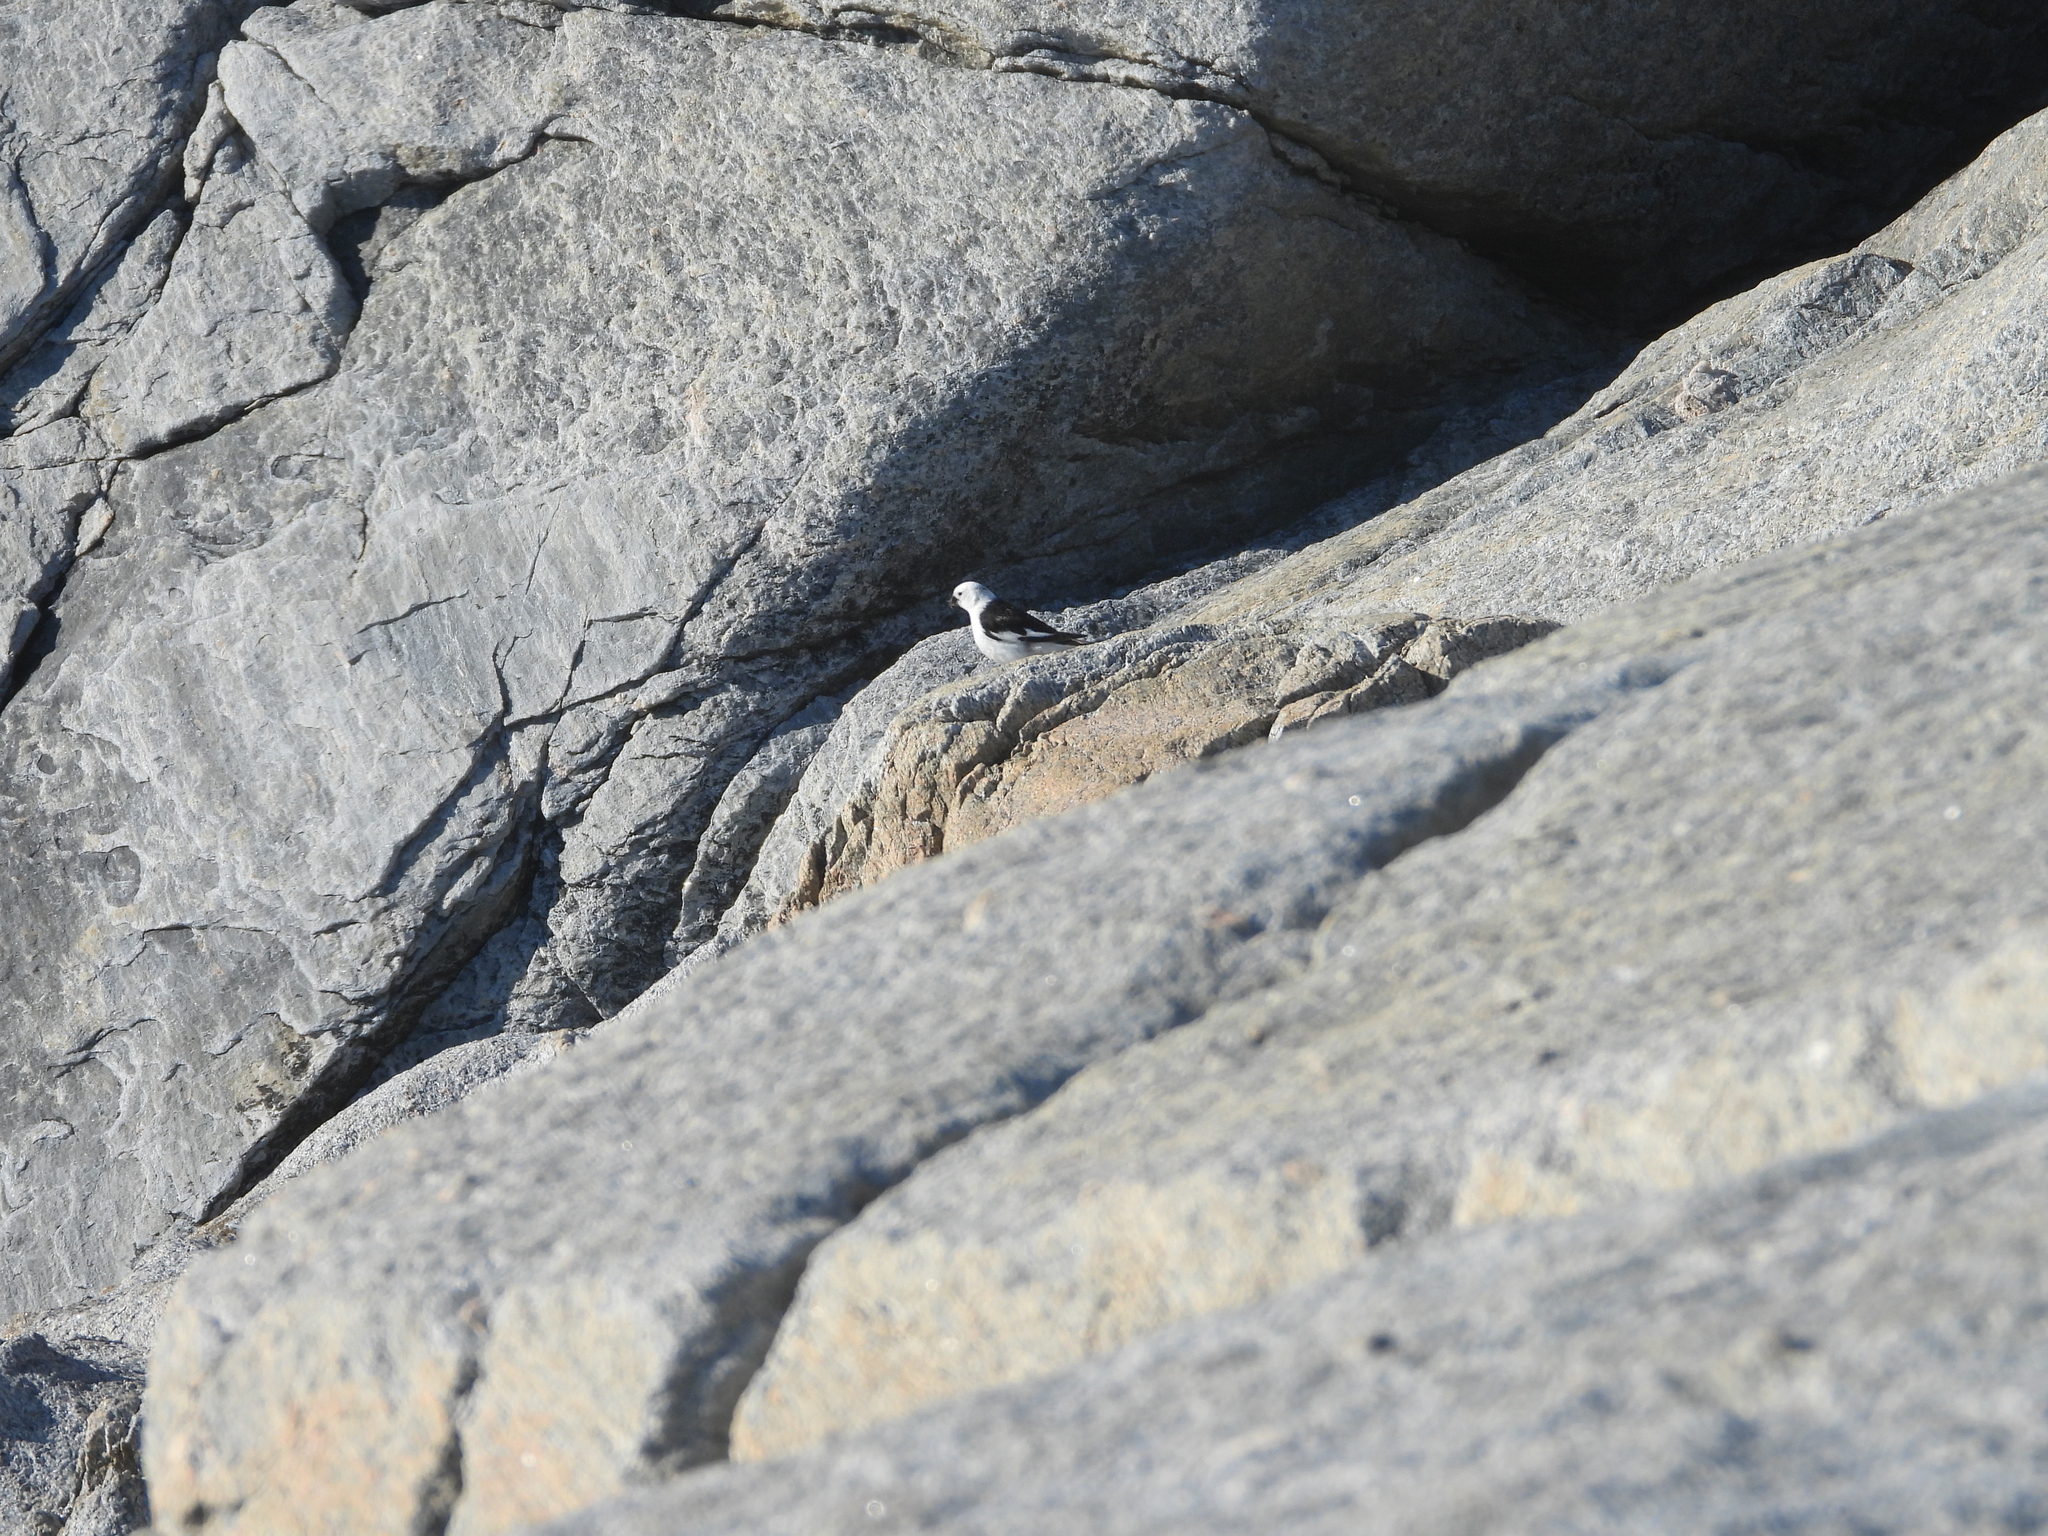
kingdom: Animalia
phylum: Chordata
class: Aves
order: Passeriformes
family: Calcariidae
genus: Plectrophenax
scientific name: Plectrophenax nivalis
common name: Snow bunting
